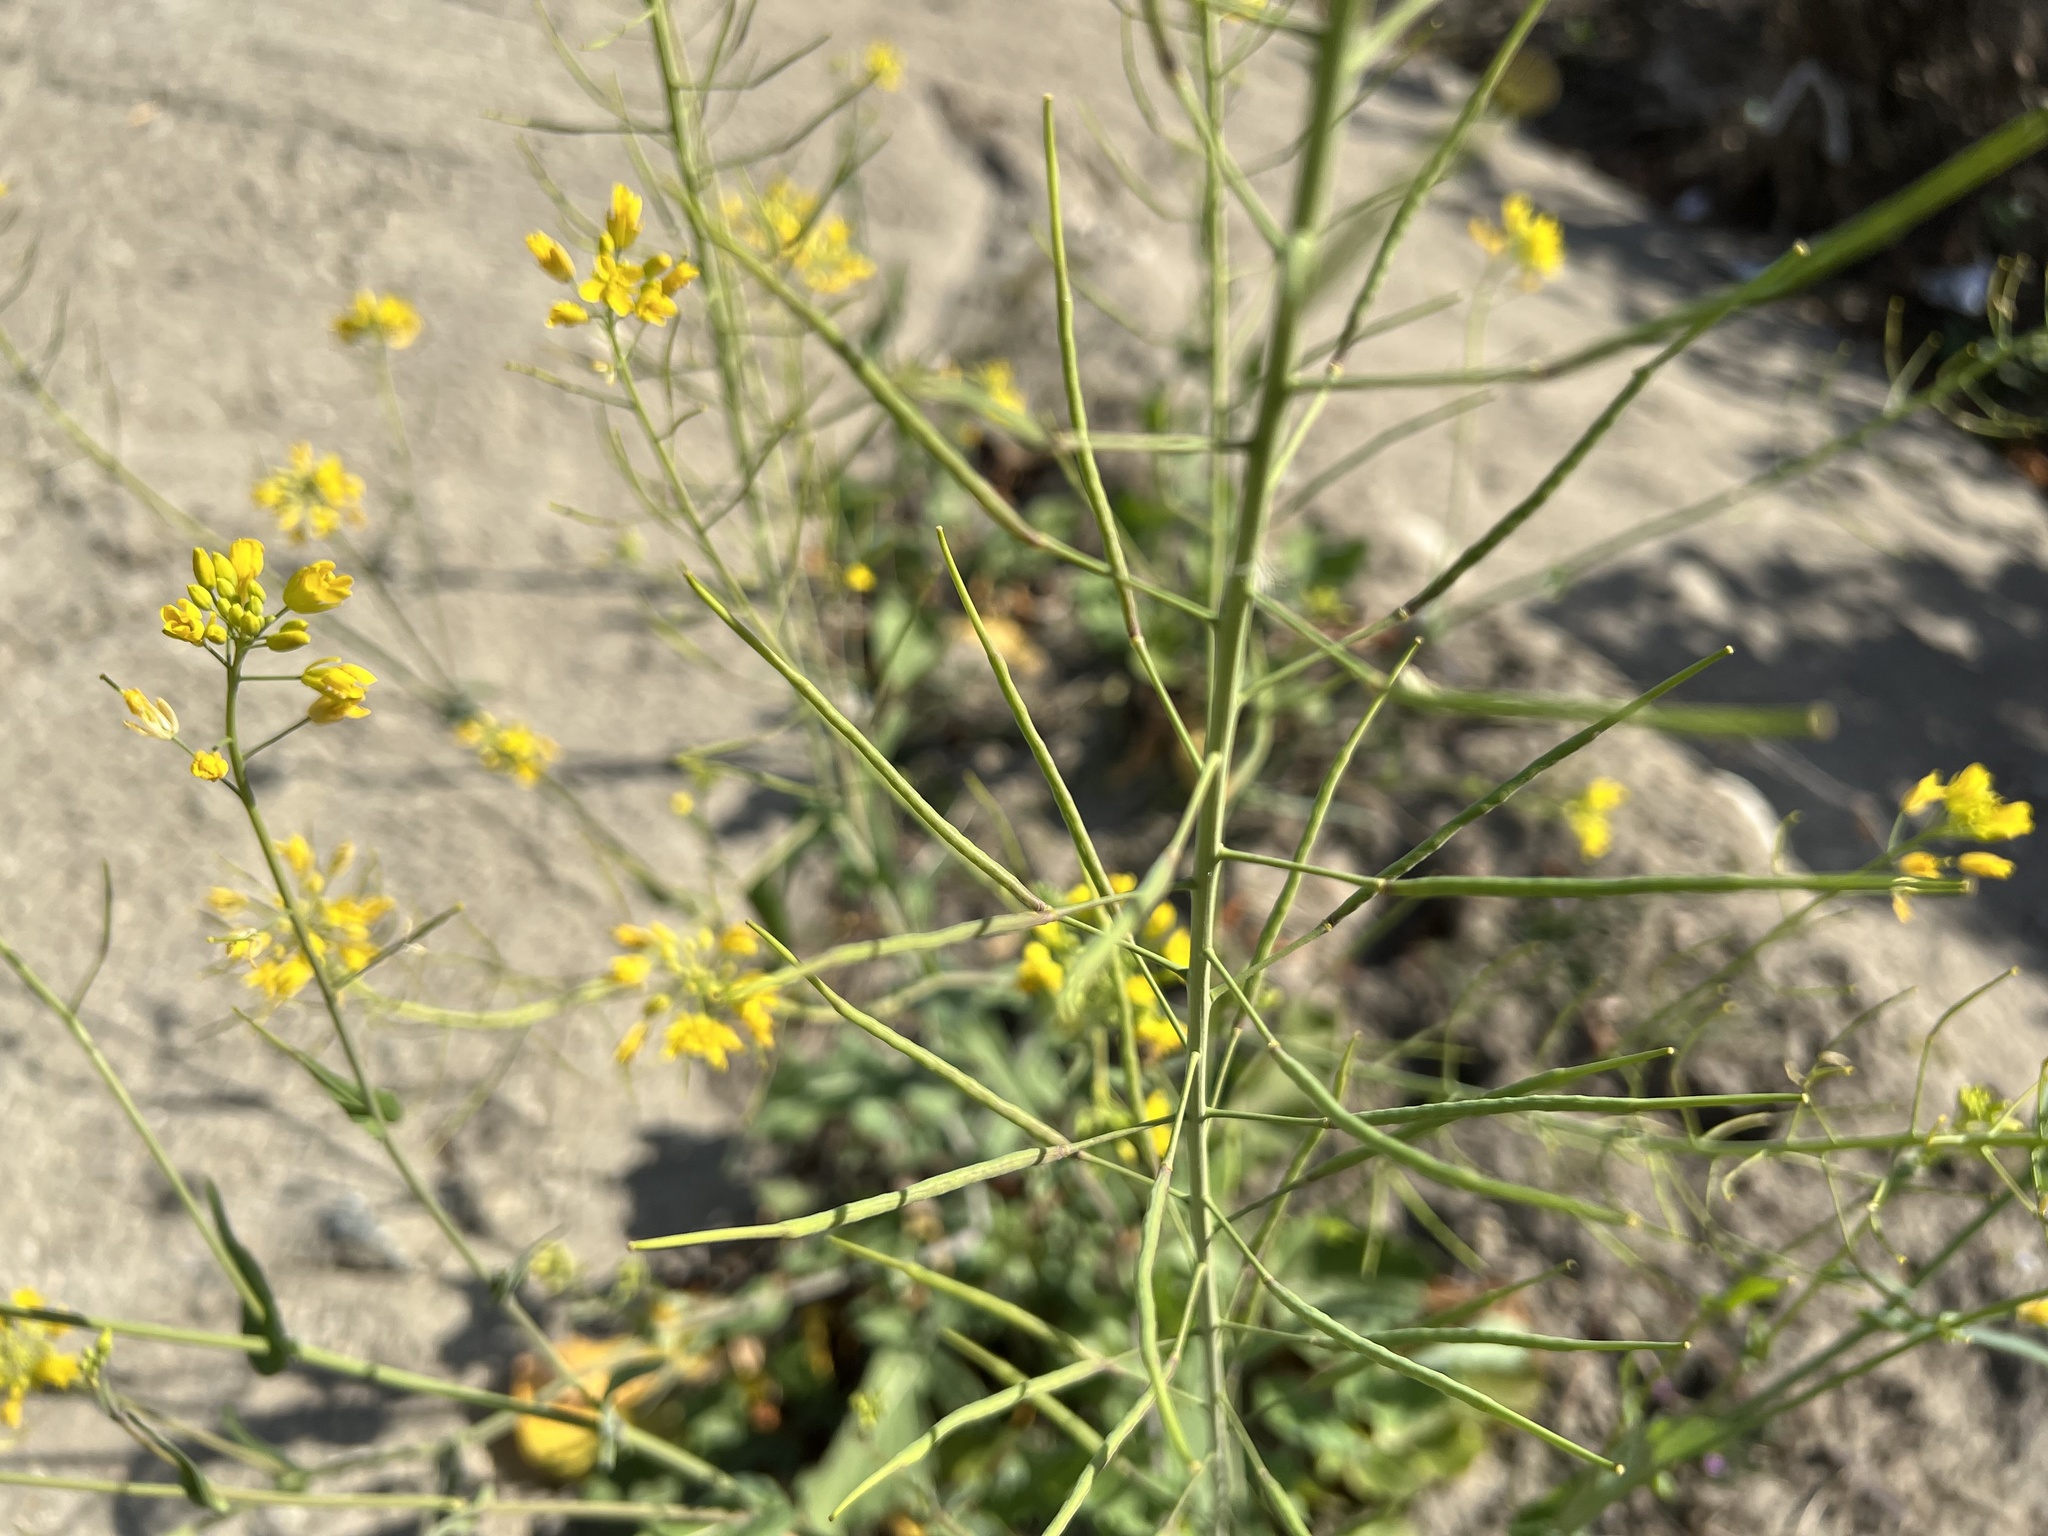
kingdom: Plantae
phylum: Tracheophyta
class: Magnoliopsida
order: Brassicales
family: Brassicaceae
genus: Brassica
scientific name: Brassica rapa
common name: Field mustard
